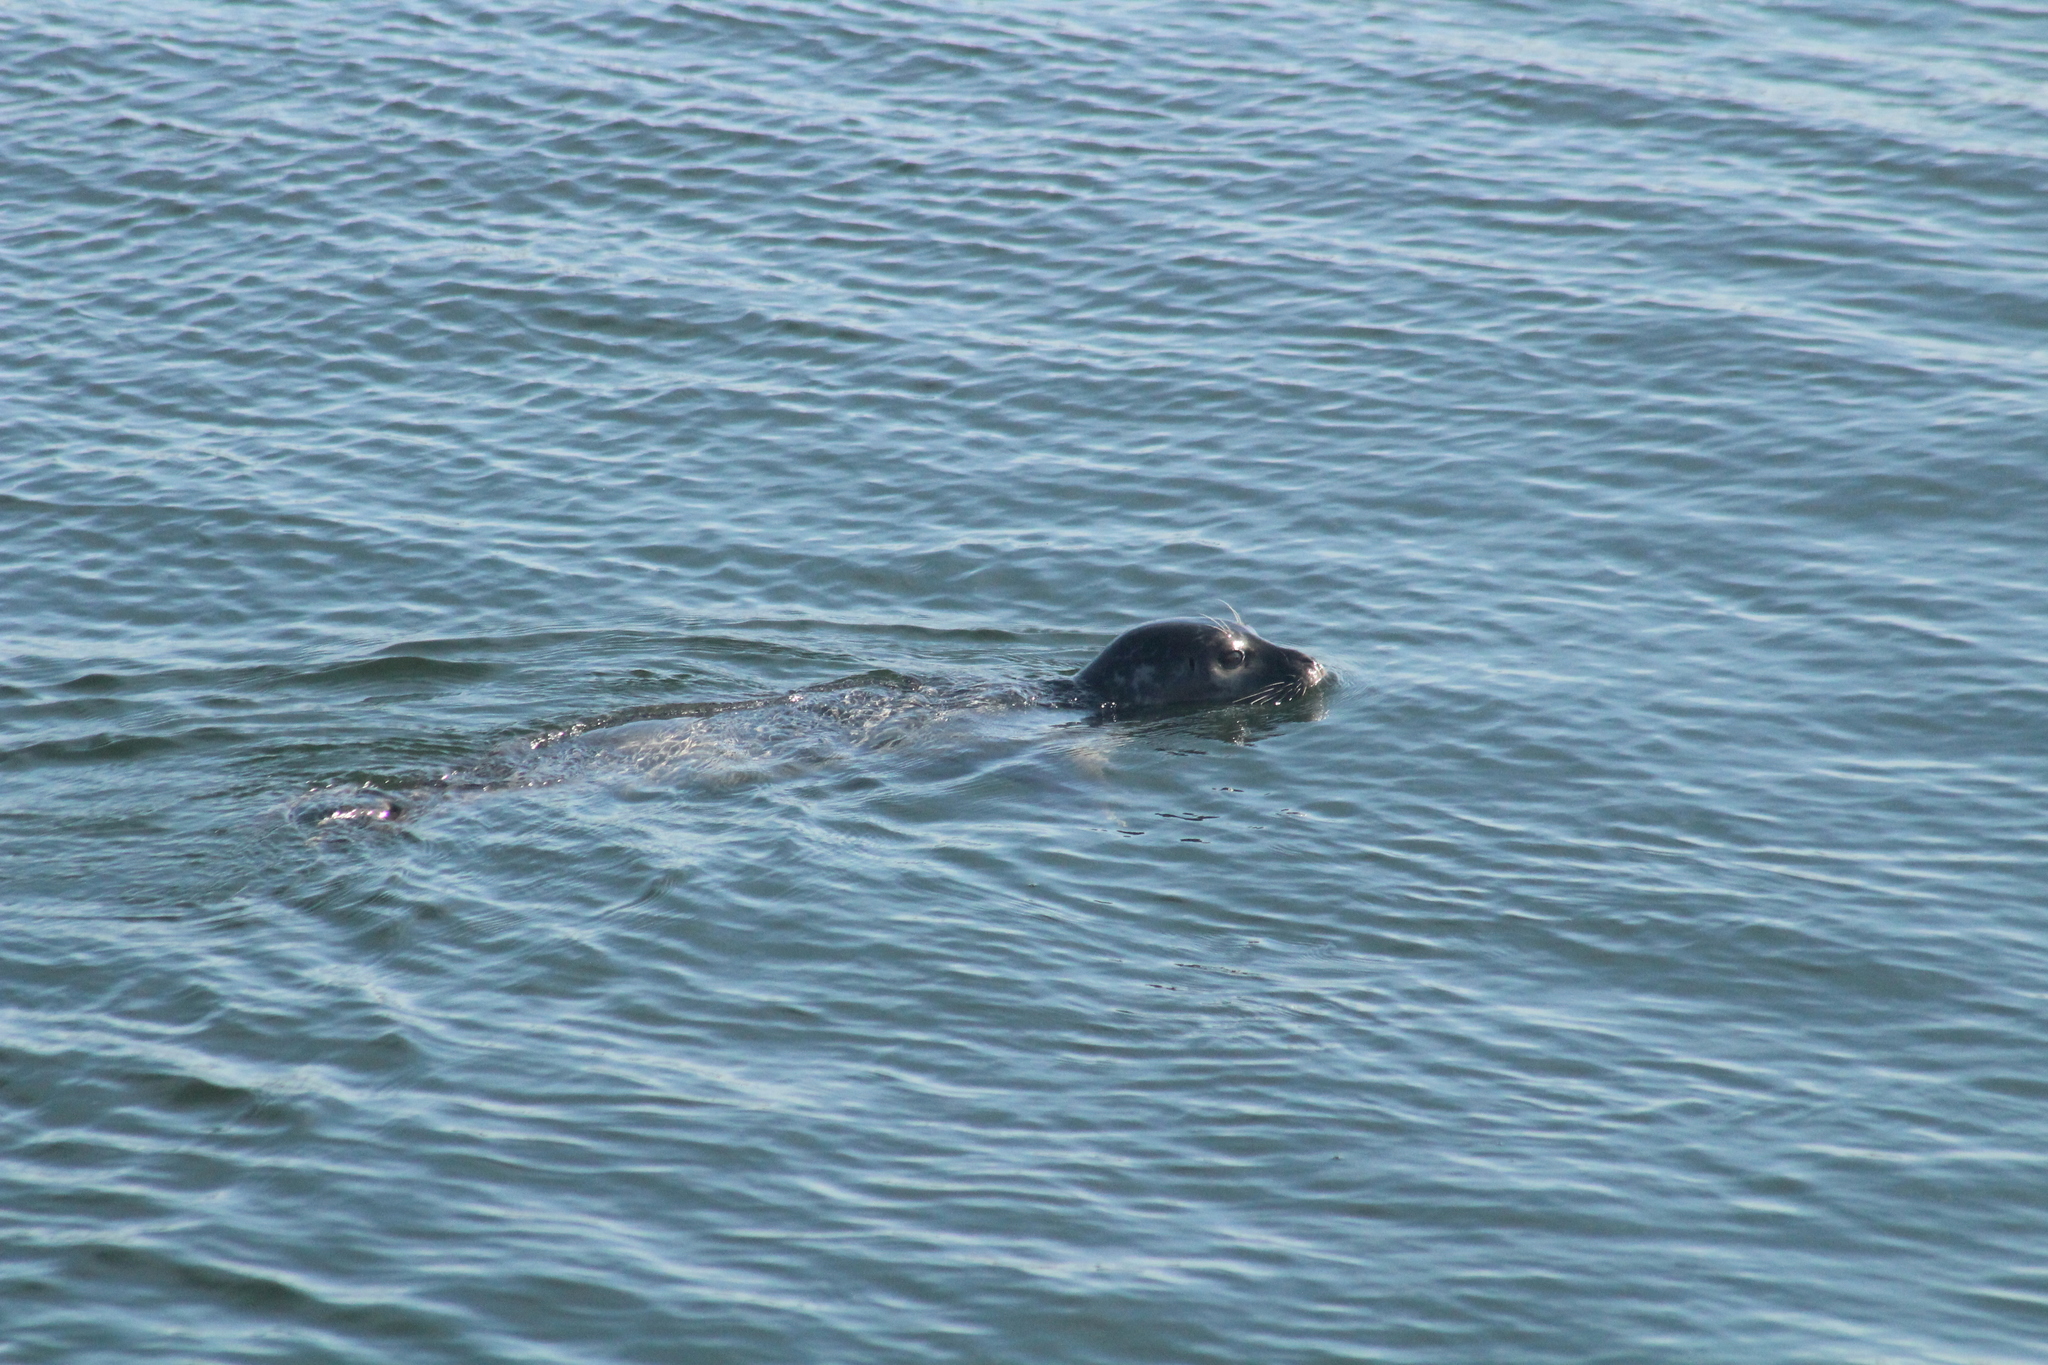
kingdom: Animalia
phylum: Chordata
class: Mammalia
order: Carnivora
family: Phocidae
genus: Phoca
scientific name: Phoca vitulina
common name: Harbor seal
